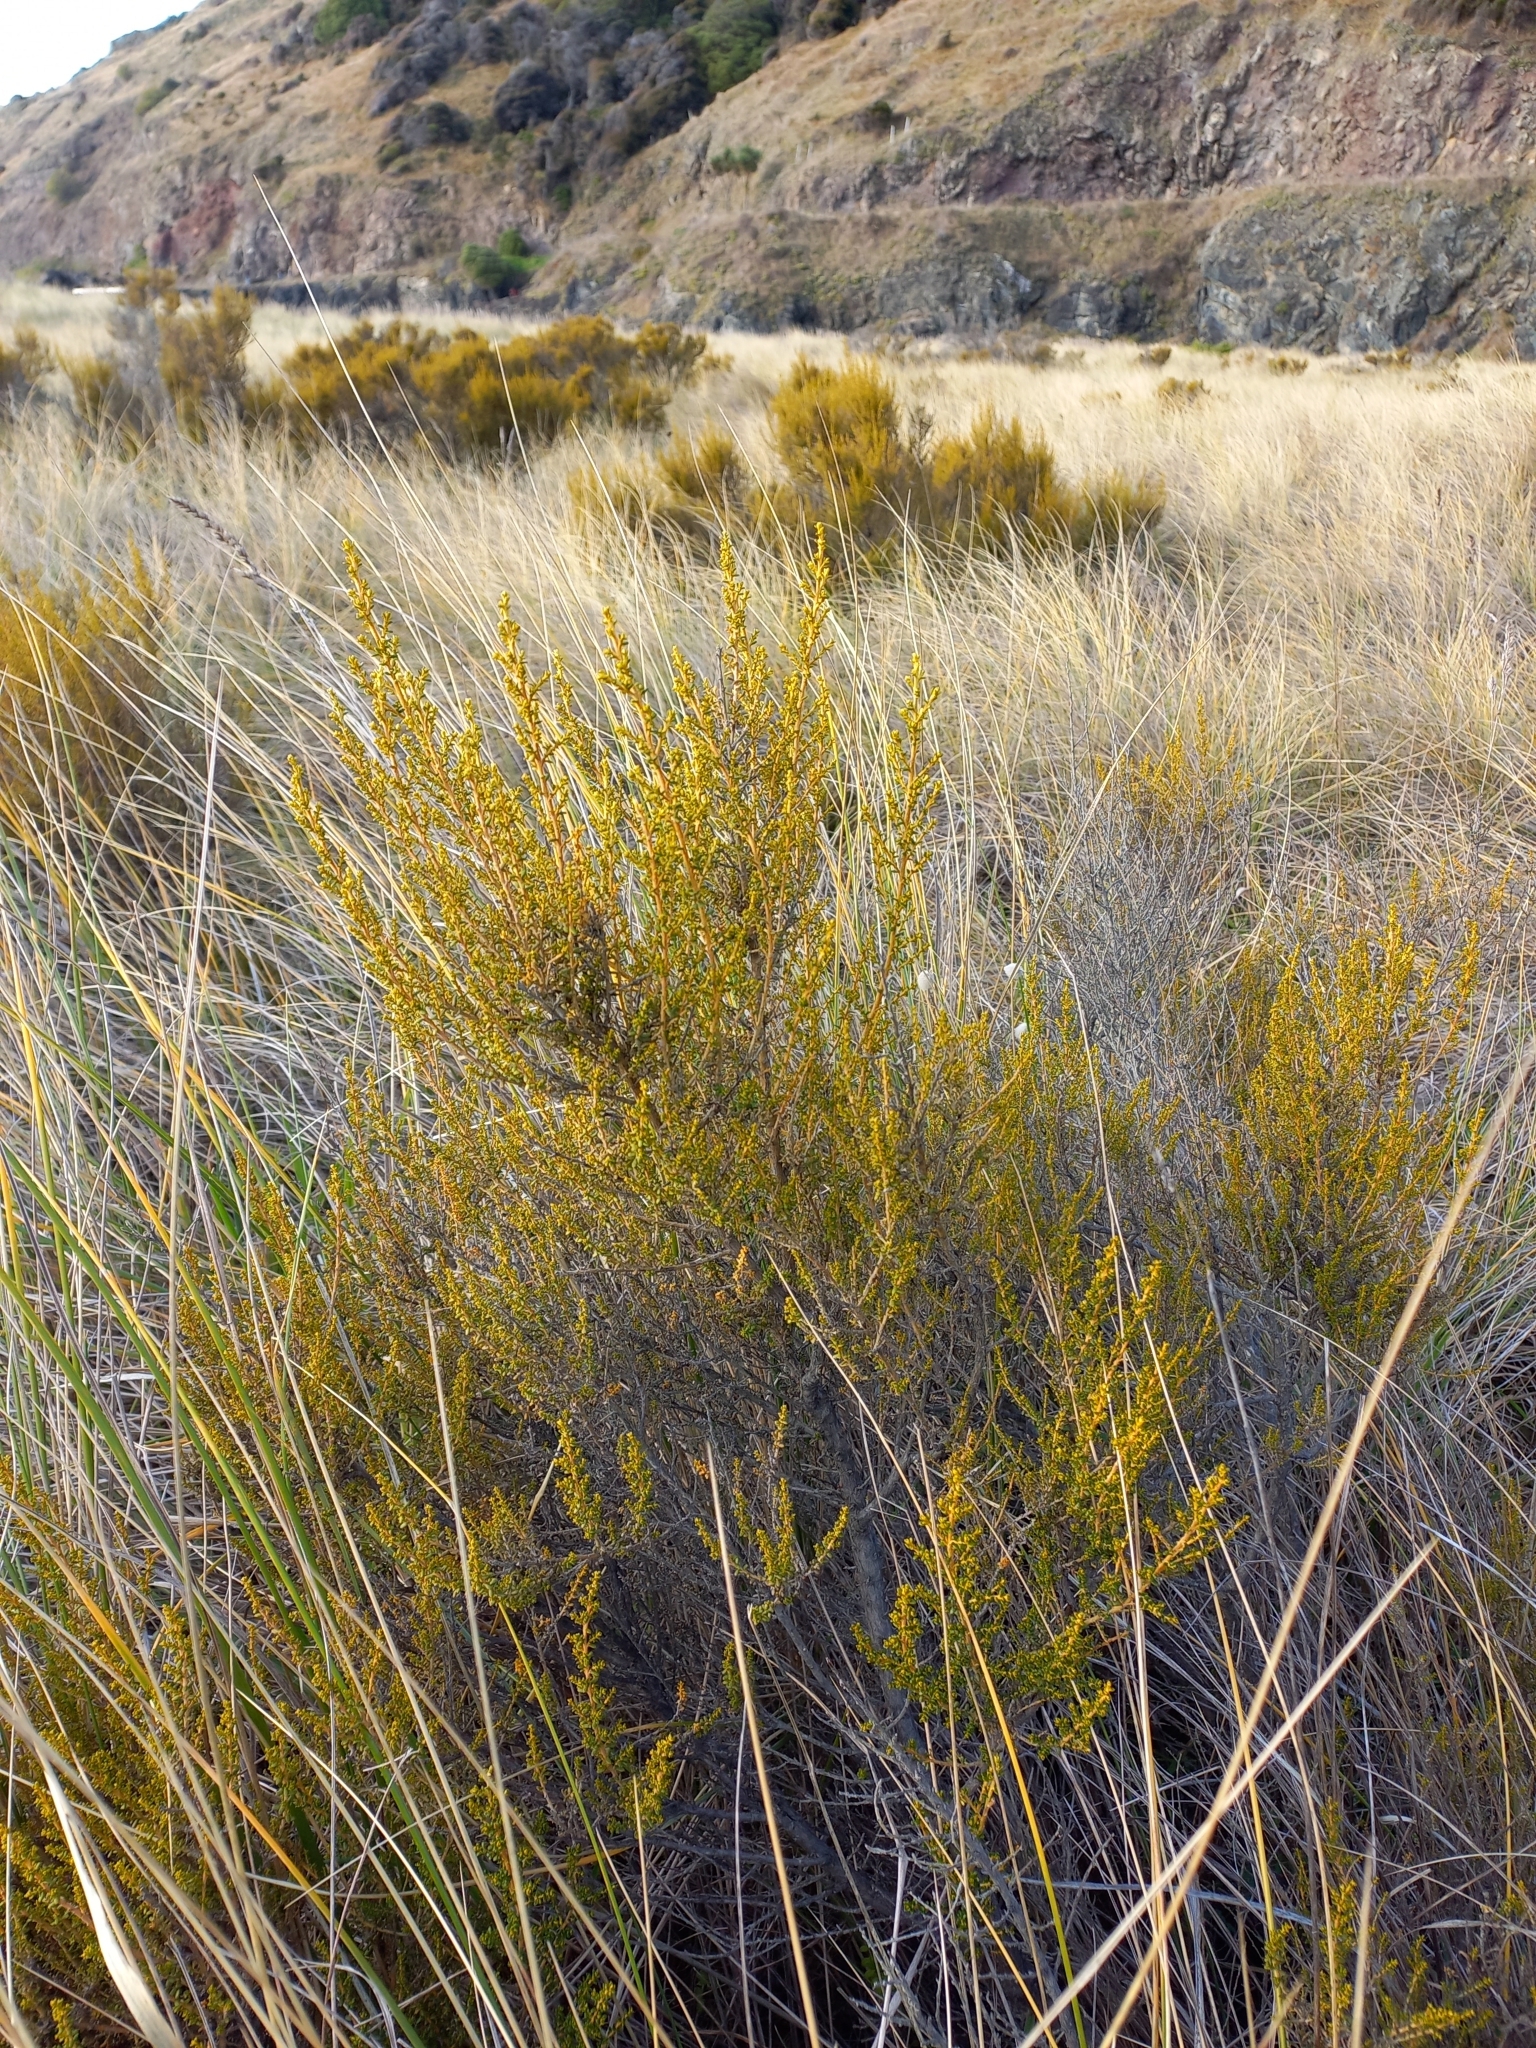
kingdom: Plantae
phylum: Tracheophyta
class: Magnoliopsida
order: Asterales
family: Asteraceae
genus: Ozothamnus
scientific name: Ozothamnus leptophyllus
